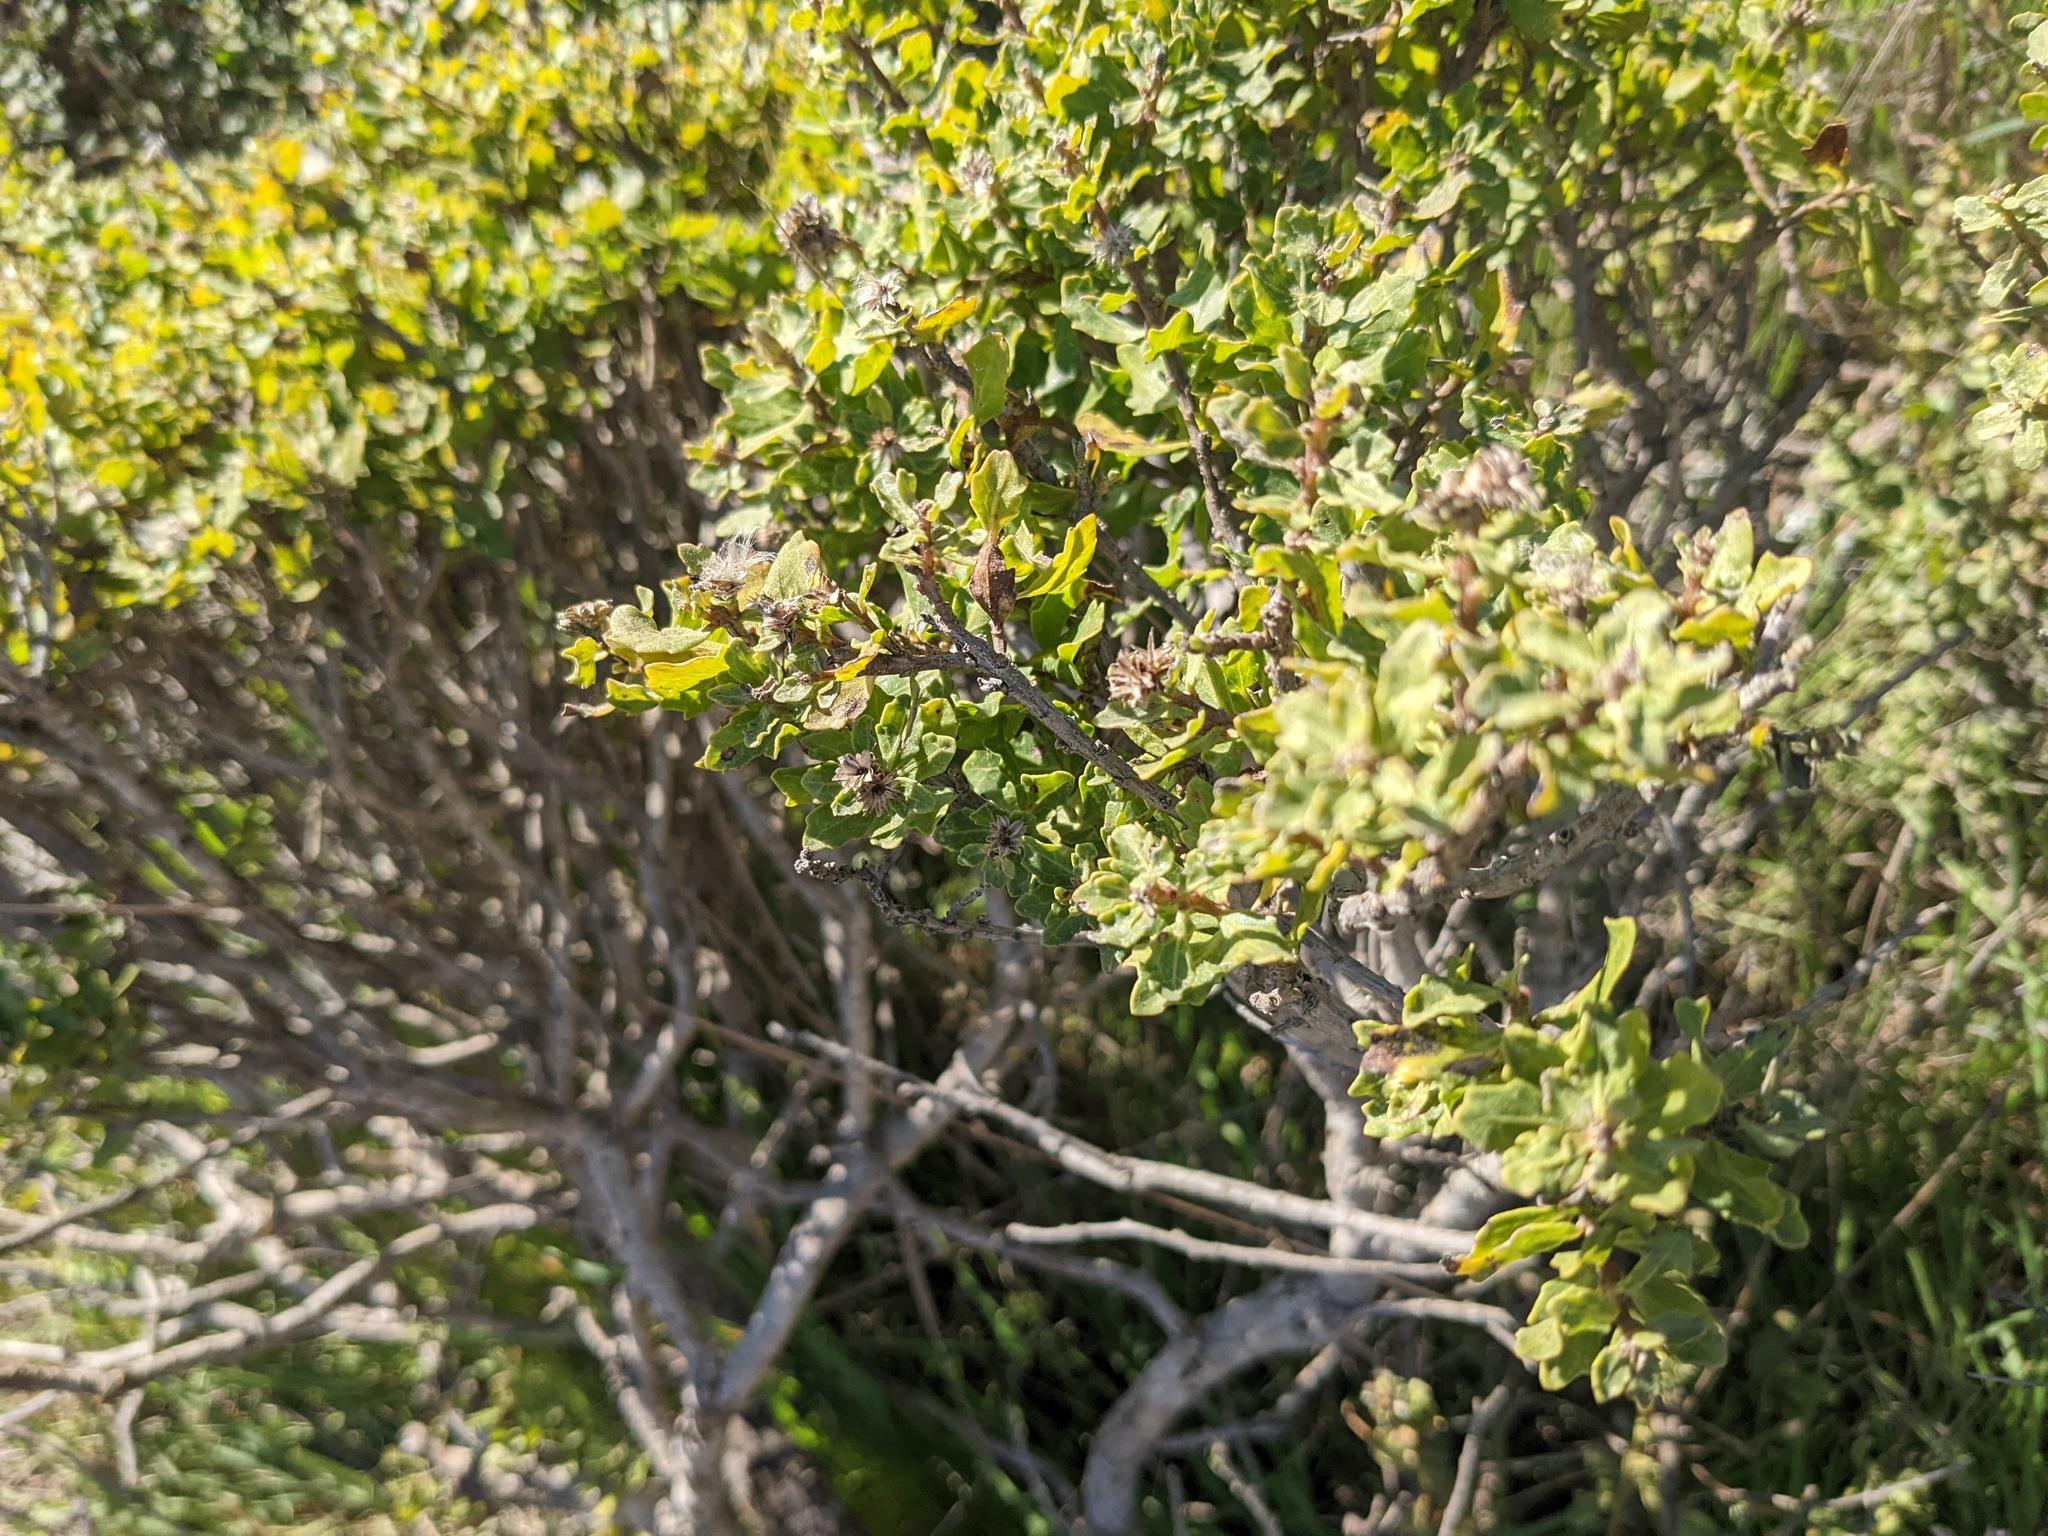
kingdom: Plantae
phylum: Tracheophyta
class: Magnoliopsida
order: Asterales
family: Asteraceae
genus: Baccharis
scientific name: Baccharis pilularis
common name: Coyotebrush
